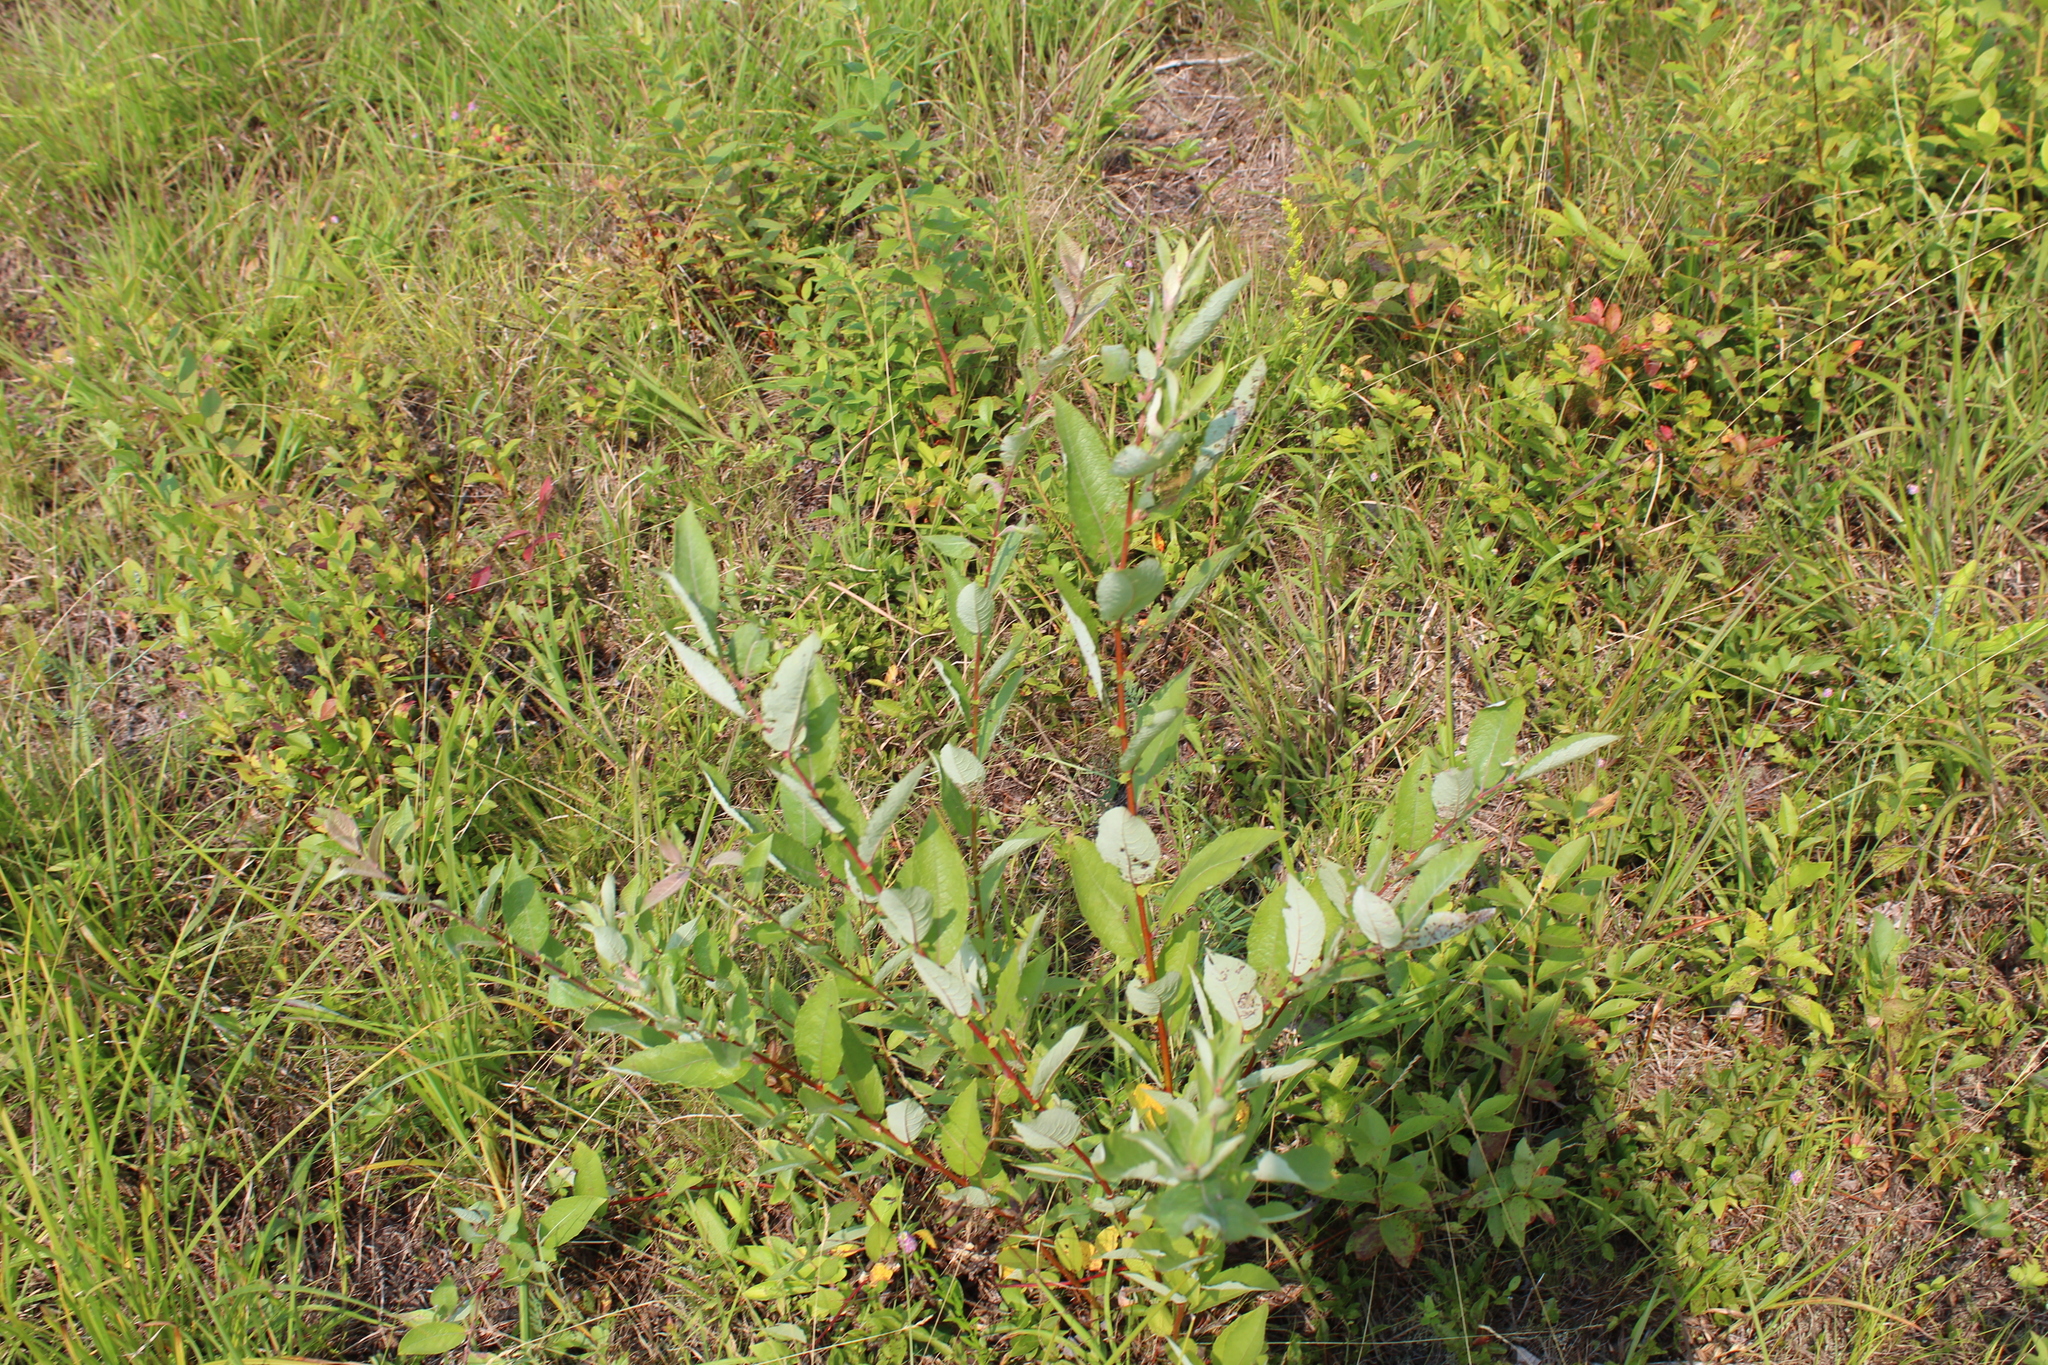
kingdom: Plantae
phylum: Tracheophyta
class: Magnoliopsida
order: Malpighiales
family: Salicaceae
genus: Salix
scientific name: Salix bebbiana
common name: Bebb's willow
